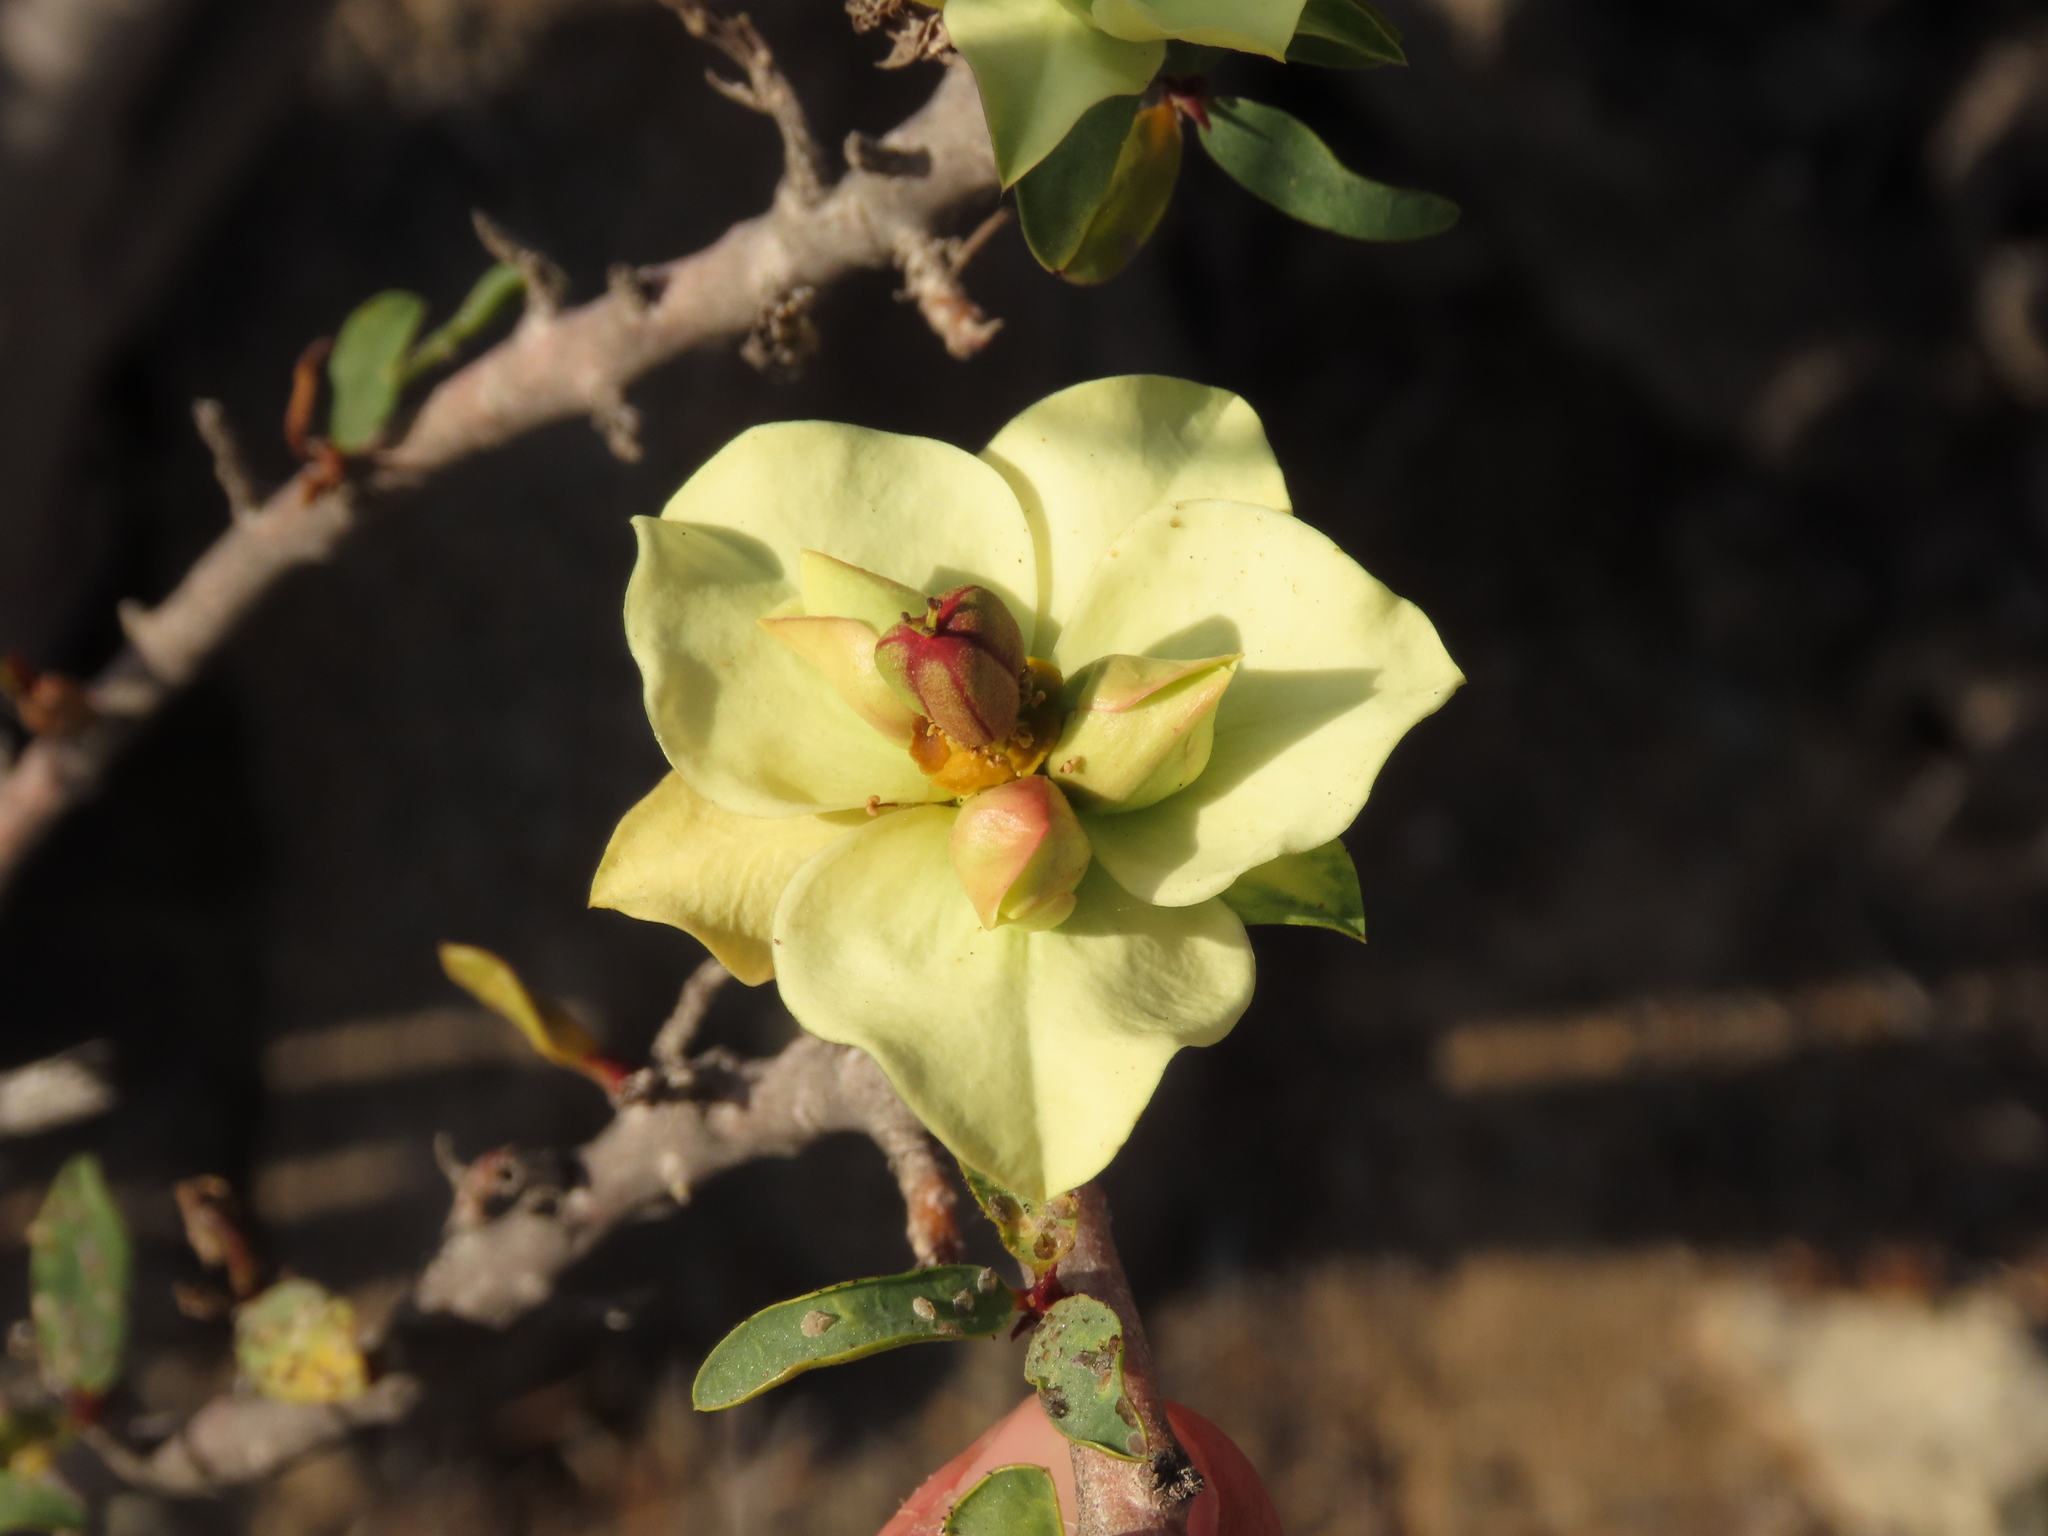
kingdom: Plantae
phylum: Tracheophyta
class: Magnoliopsida
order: Malpighiales
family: Euphorbiaceae
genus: Euphorbia
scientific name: Euphorbia lactiflua
